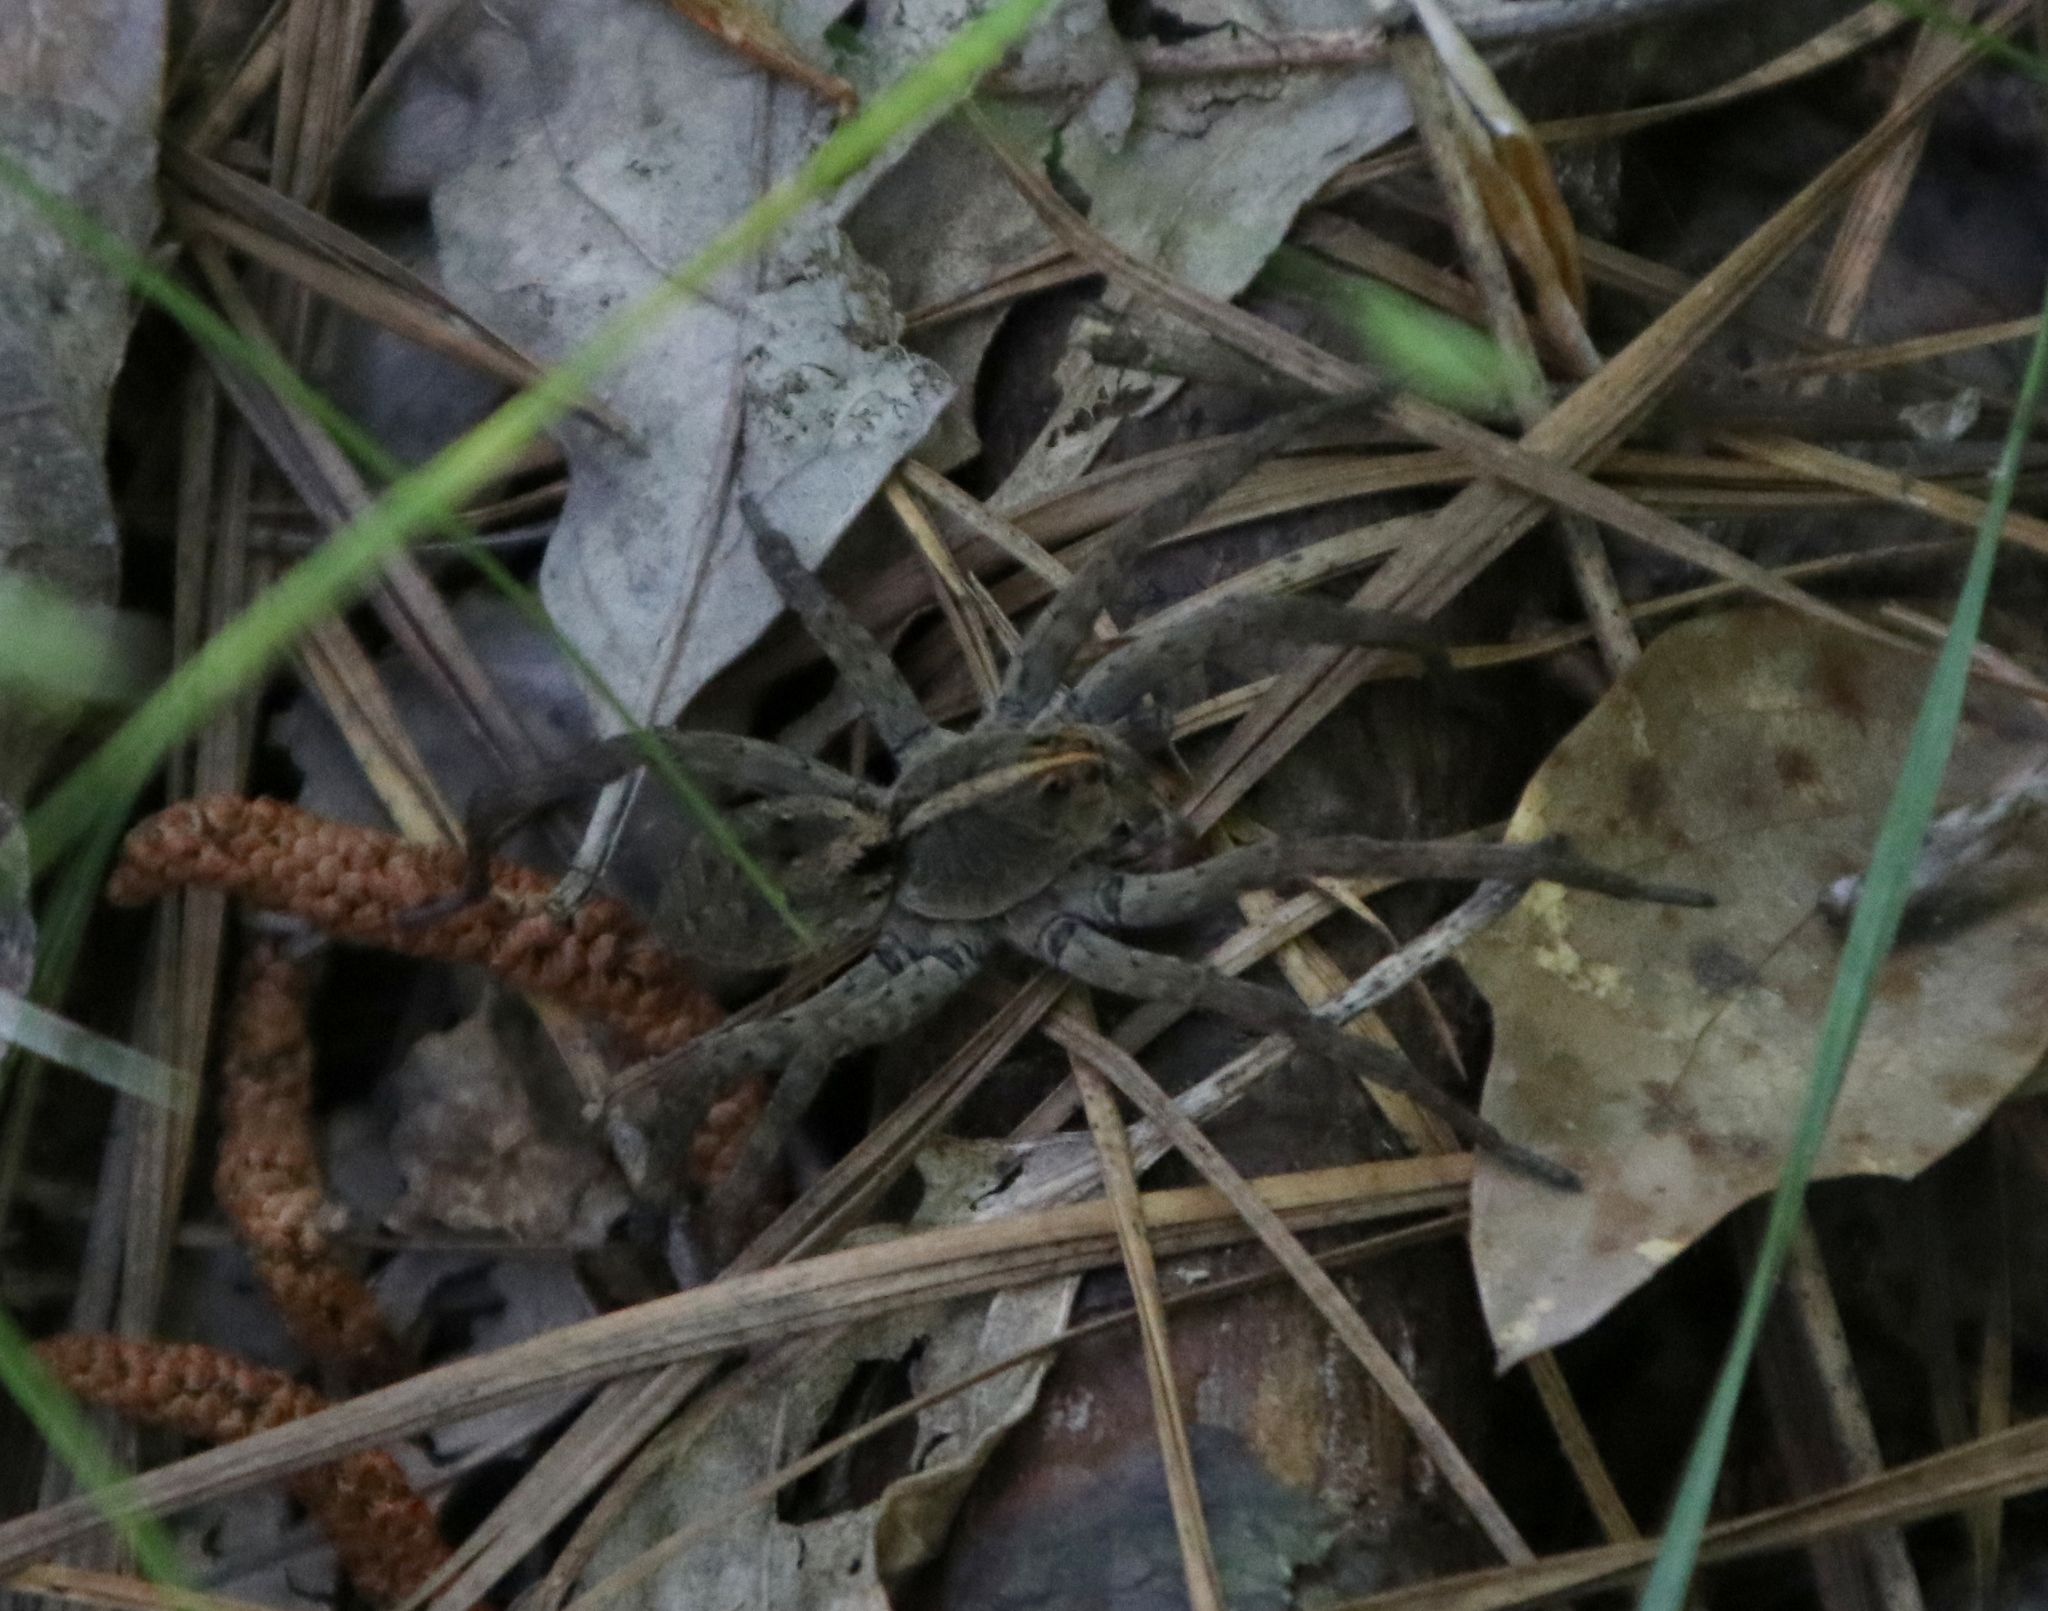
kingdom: Animalia
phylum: Arthropoda
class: Arachnida
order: Araneae
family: Lycosidae
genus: Tigrosa
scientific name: Tigrosa georgicola
